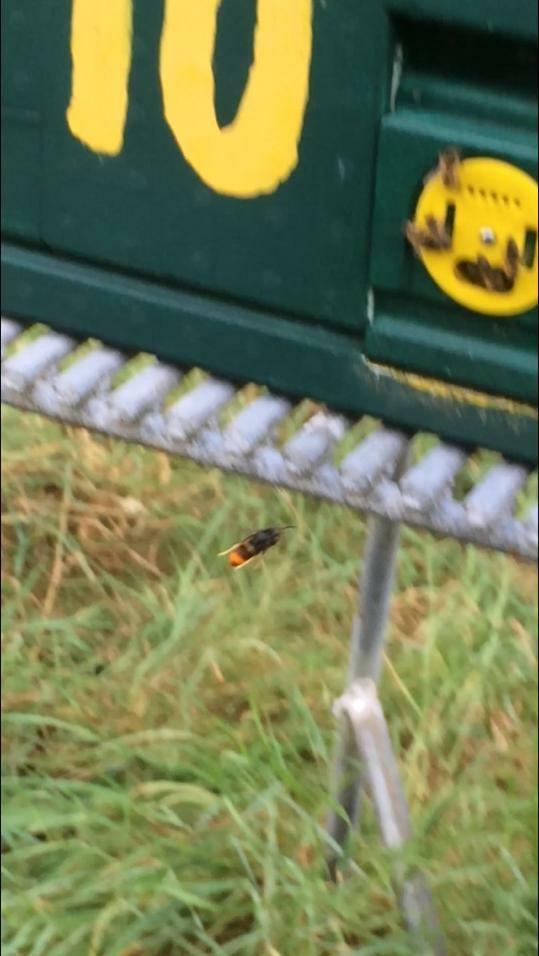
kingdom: Animalia
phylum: Arthropoda
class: Insecta
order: Hymenoptera
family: Vespidae
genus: Vespa
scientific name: Vespa velutina
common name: Asian hornet
